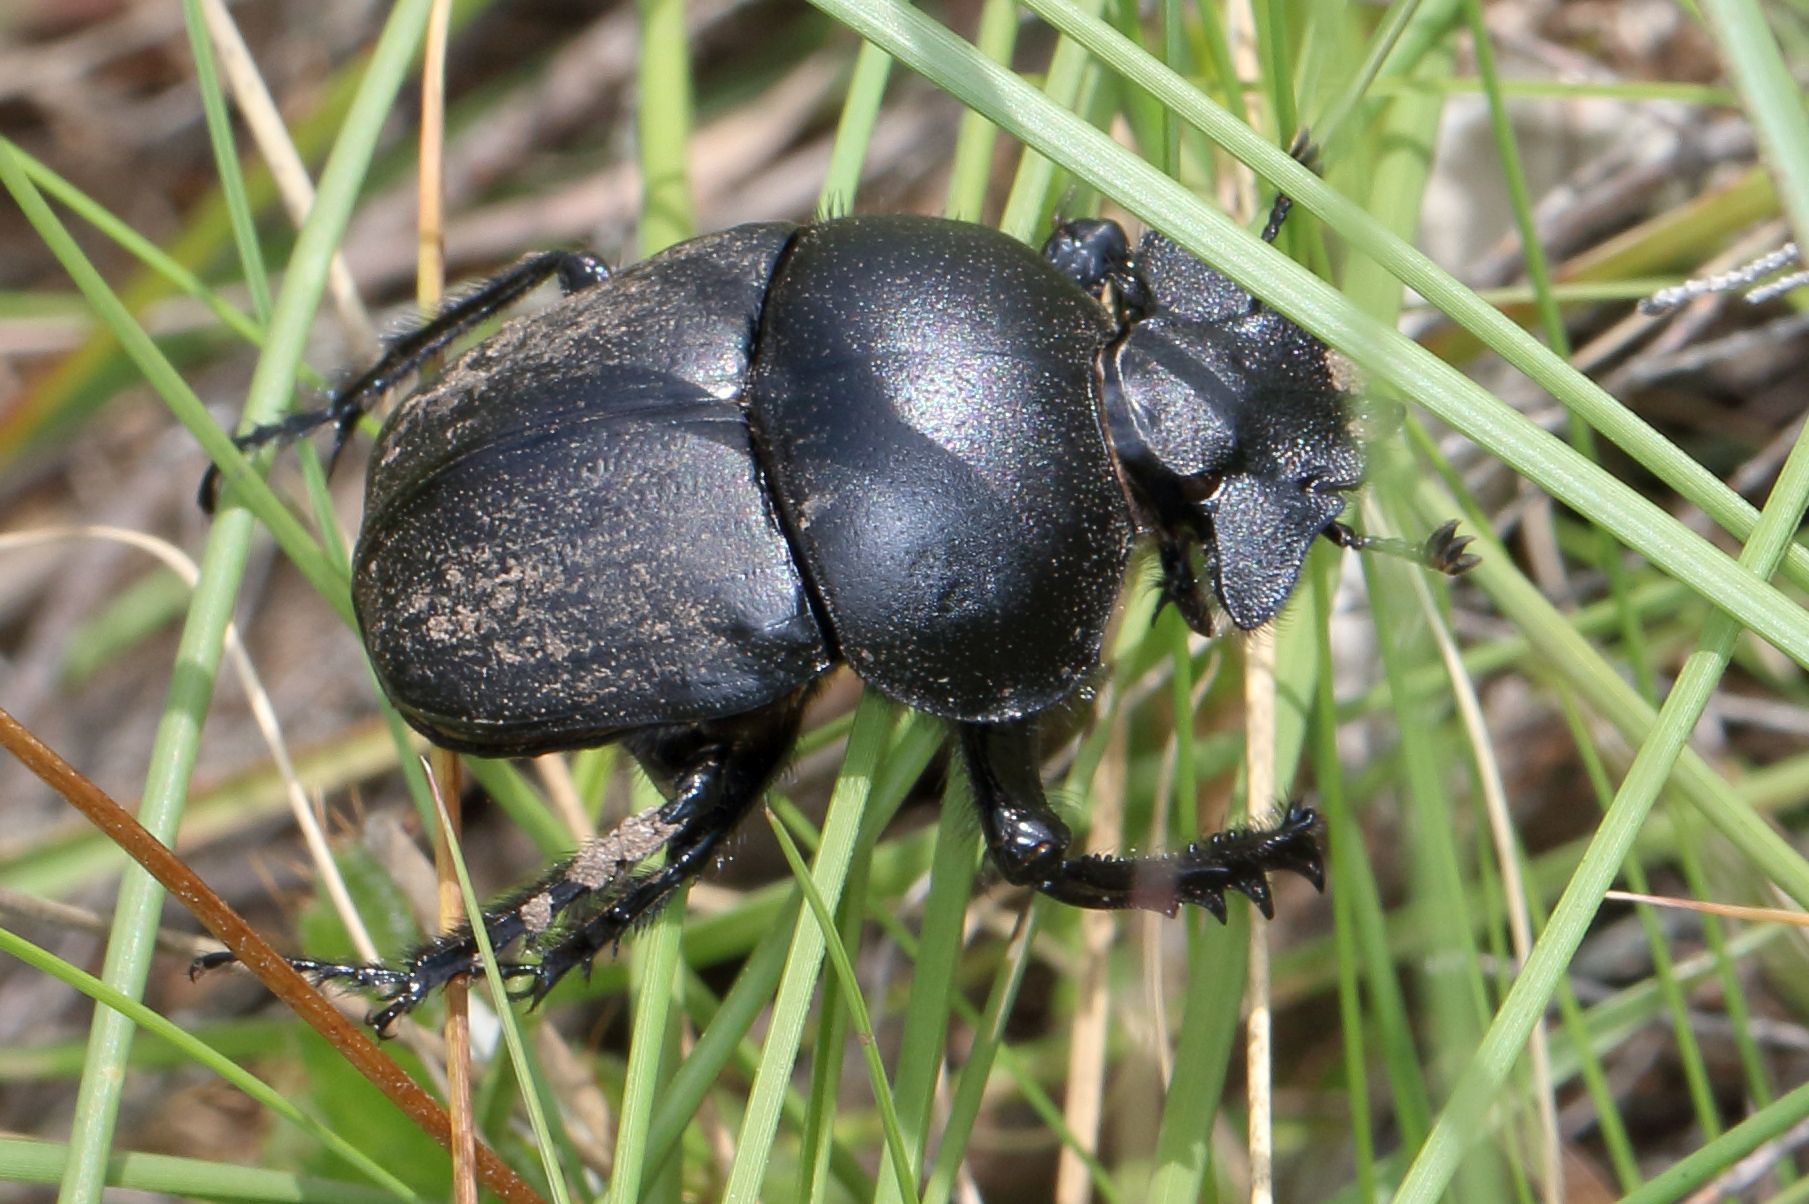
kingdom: Animalia
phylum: Arthropoda
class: Insecta
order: Coleoptera
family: Scarabaeidae
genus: Scarabaeus
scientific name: Scarabaeus westwoodi
